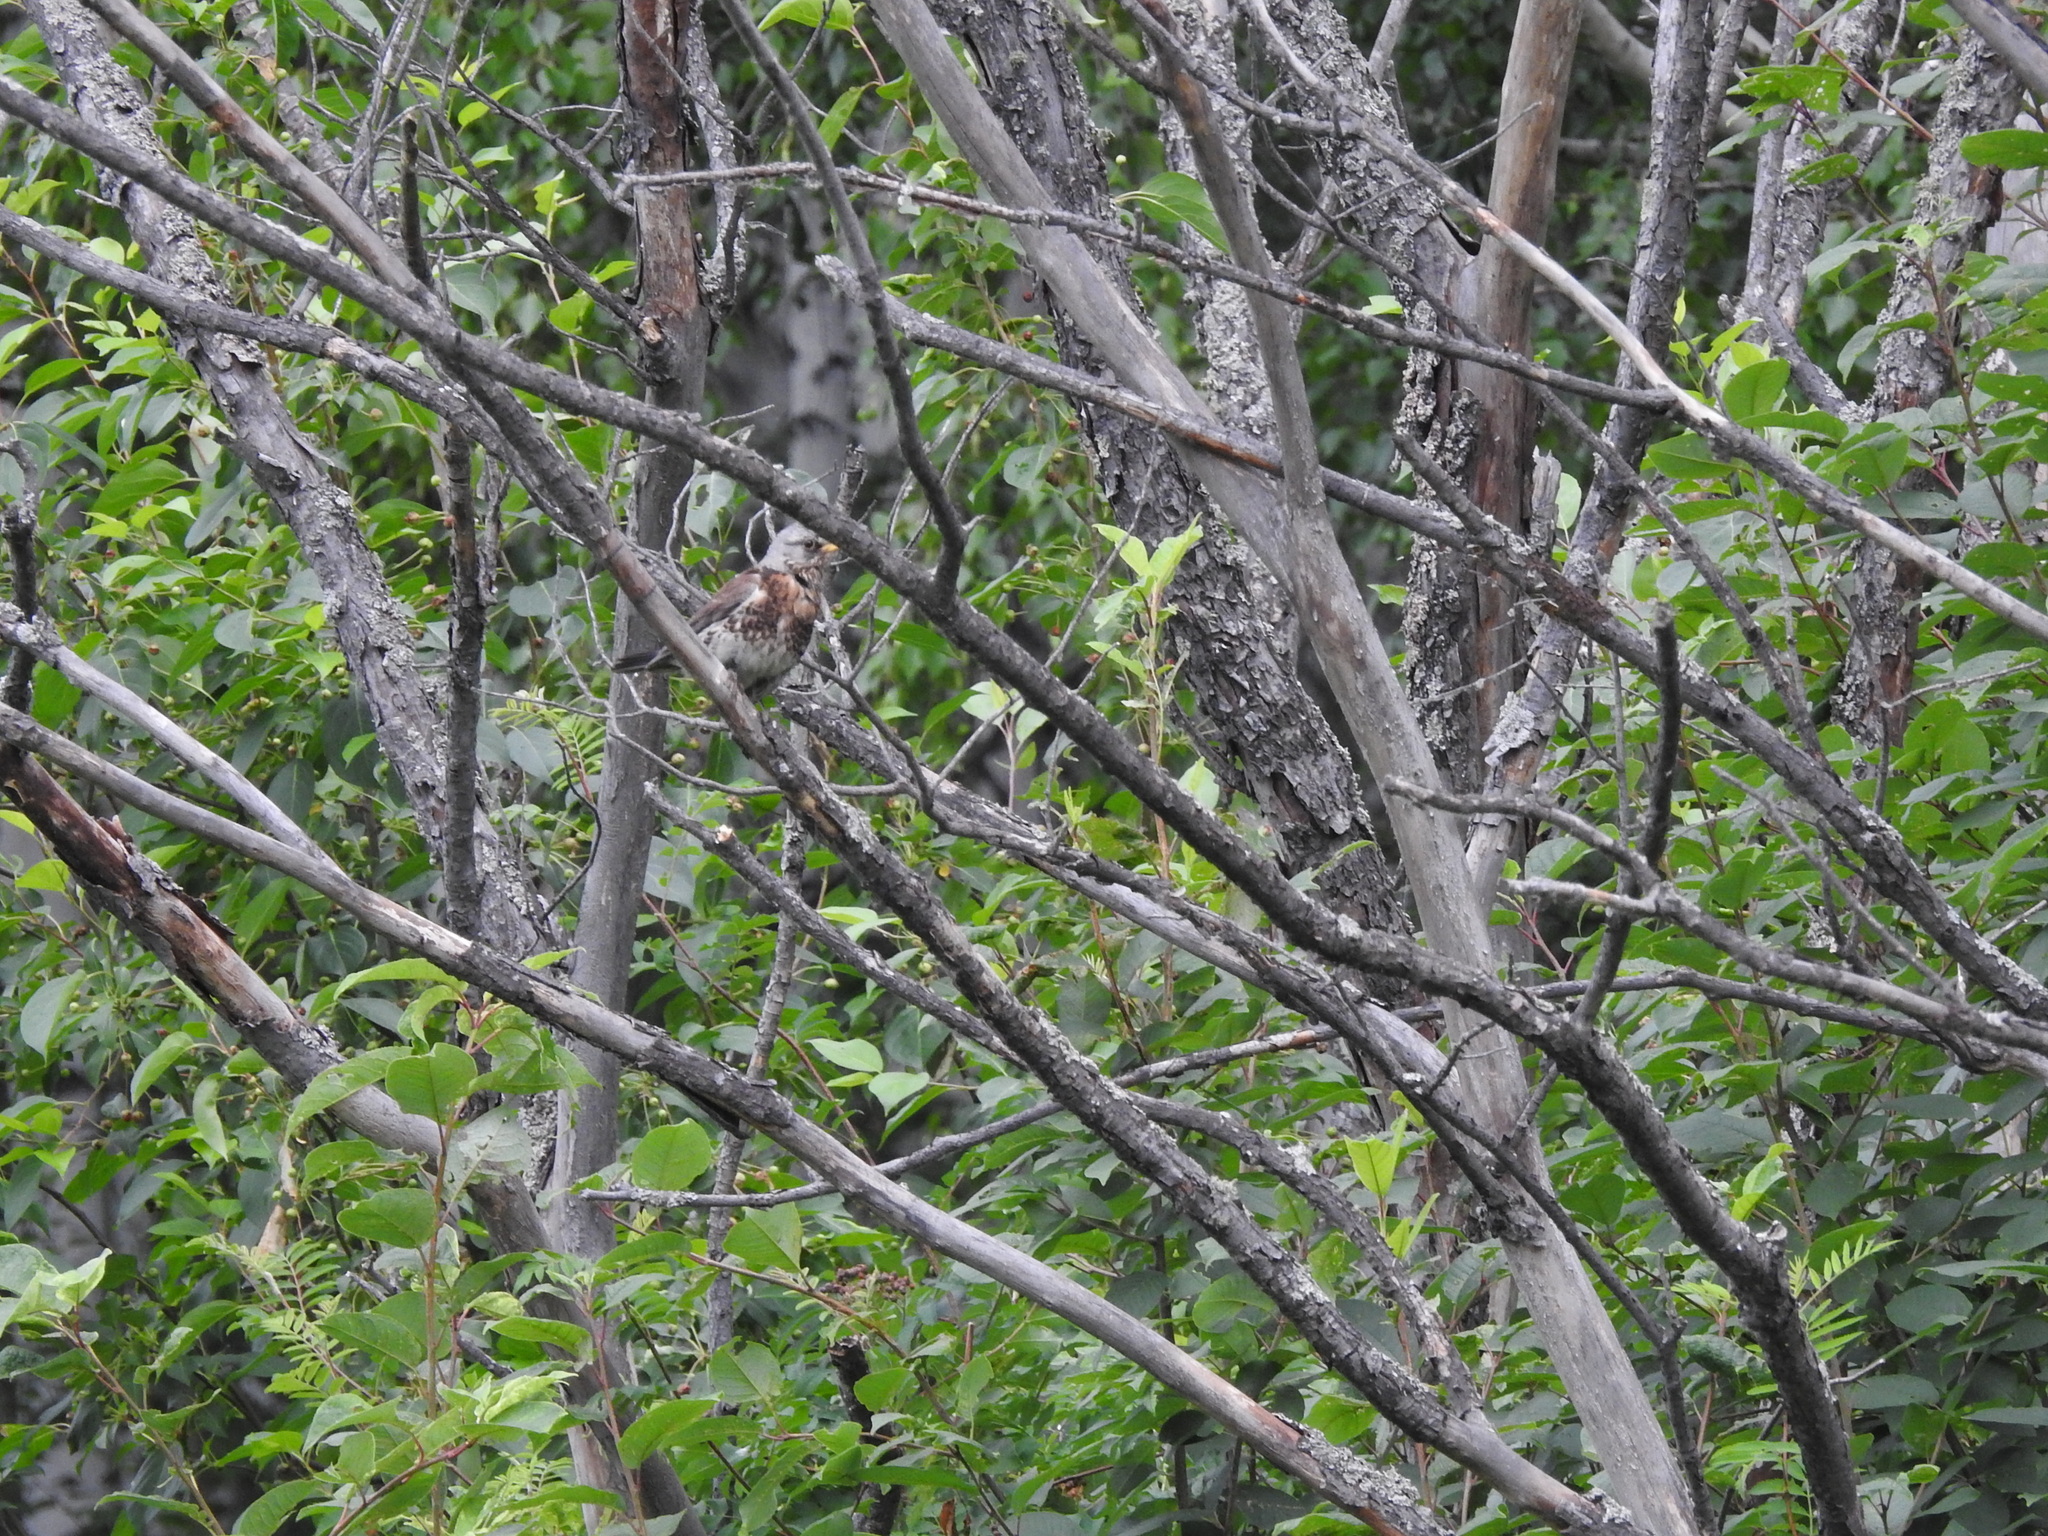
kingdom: Animalia
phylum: Chordata
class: Aves
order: Passeriformes
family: Turdidae
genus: Turdus
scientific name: Turdus pilaris
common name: Fieldfare
